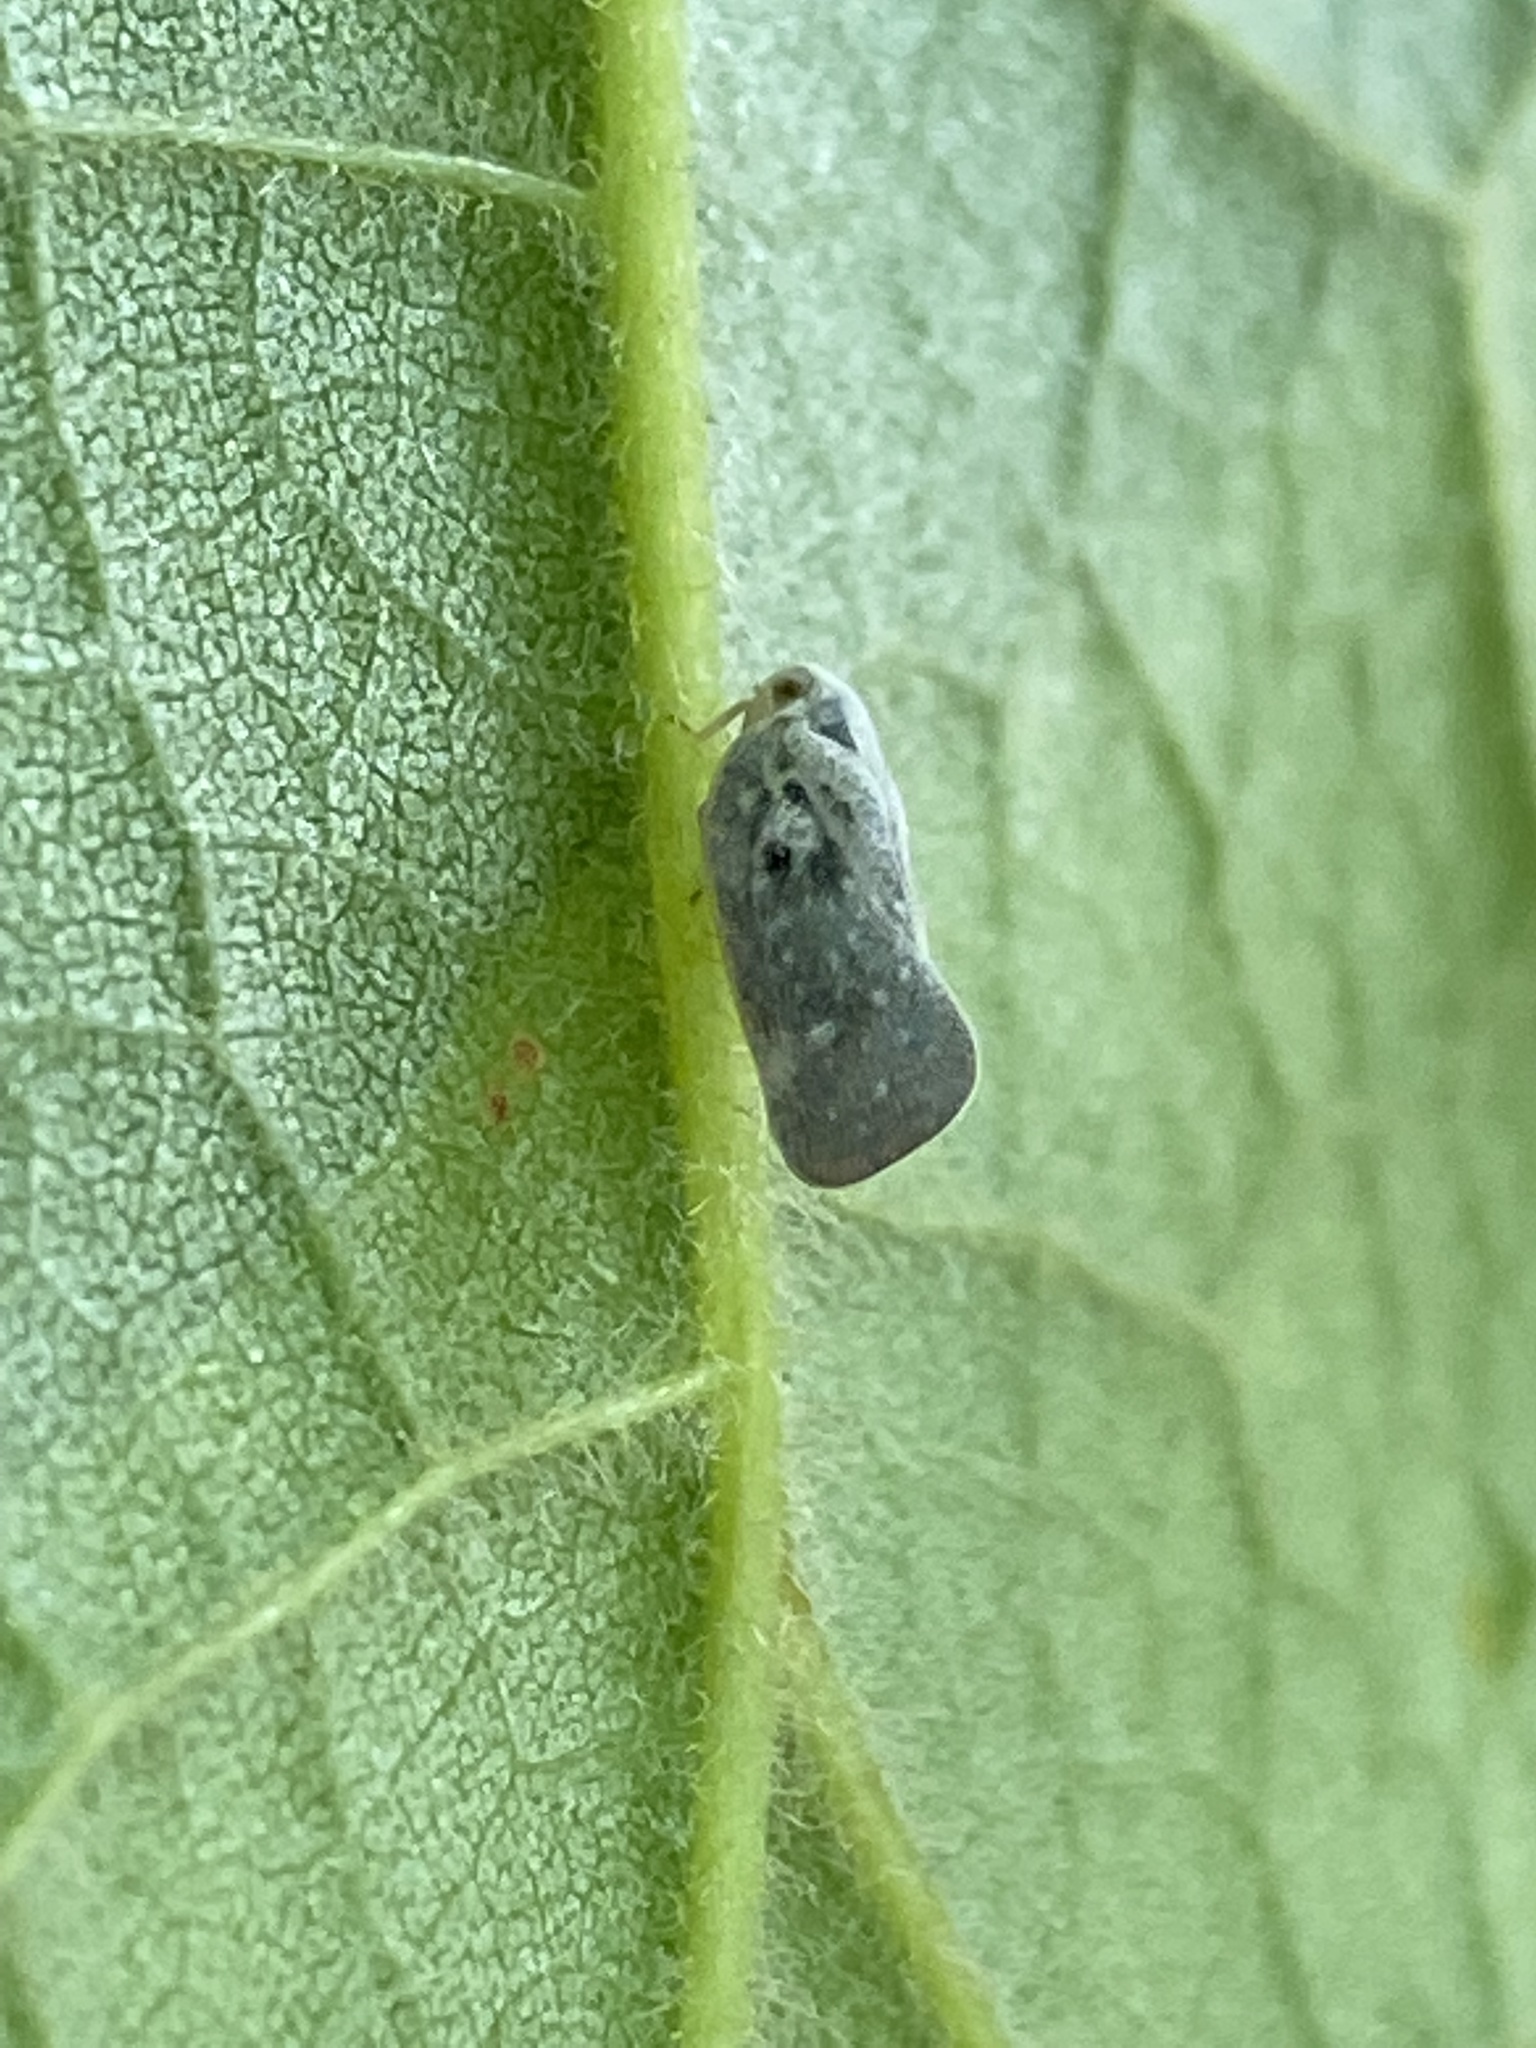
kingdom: Animalia
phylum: Arthropoda
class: Insecta
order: Hemiptera
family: Flatidae
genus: Metcalfa
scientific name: Metcalfa pruinosa
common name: Citrus flatid planthopper
